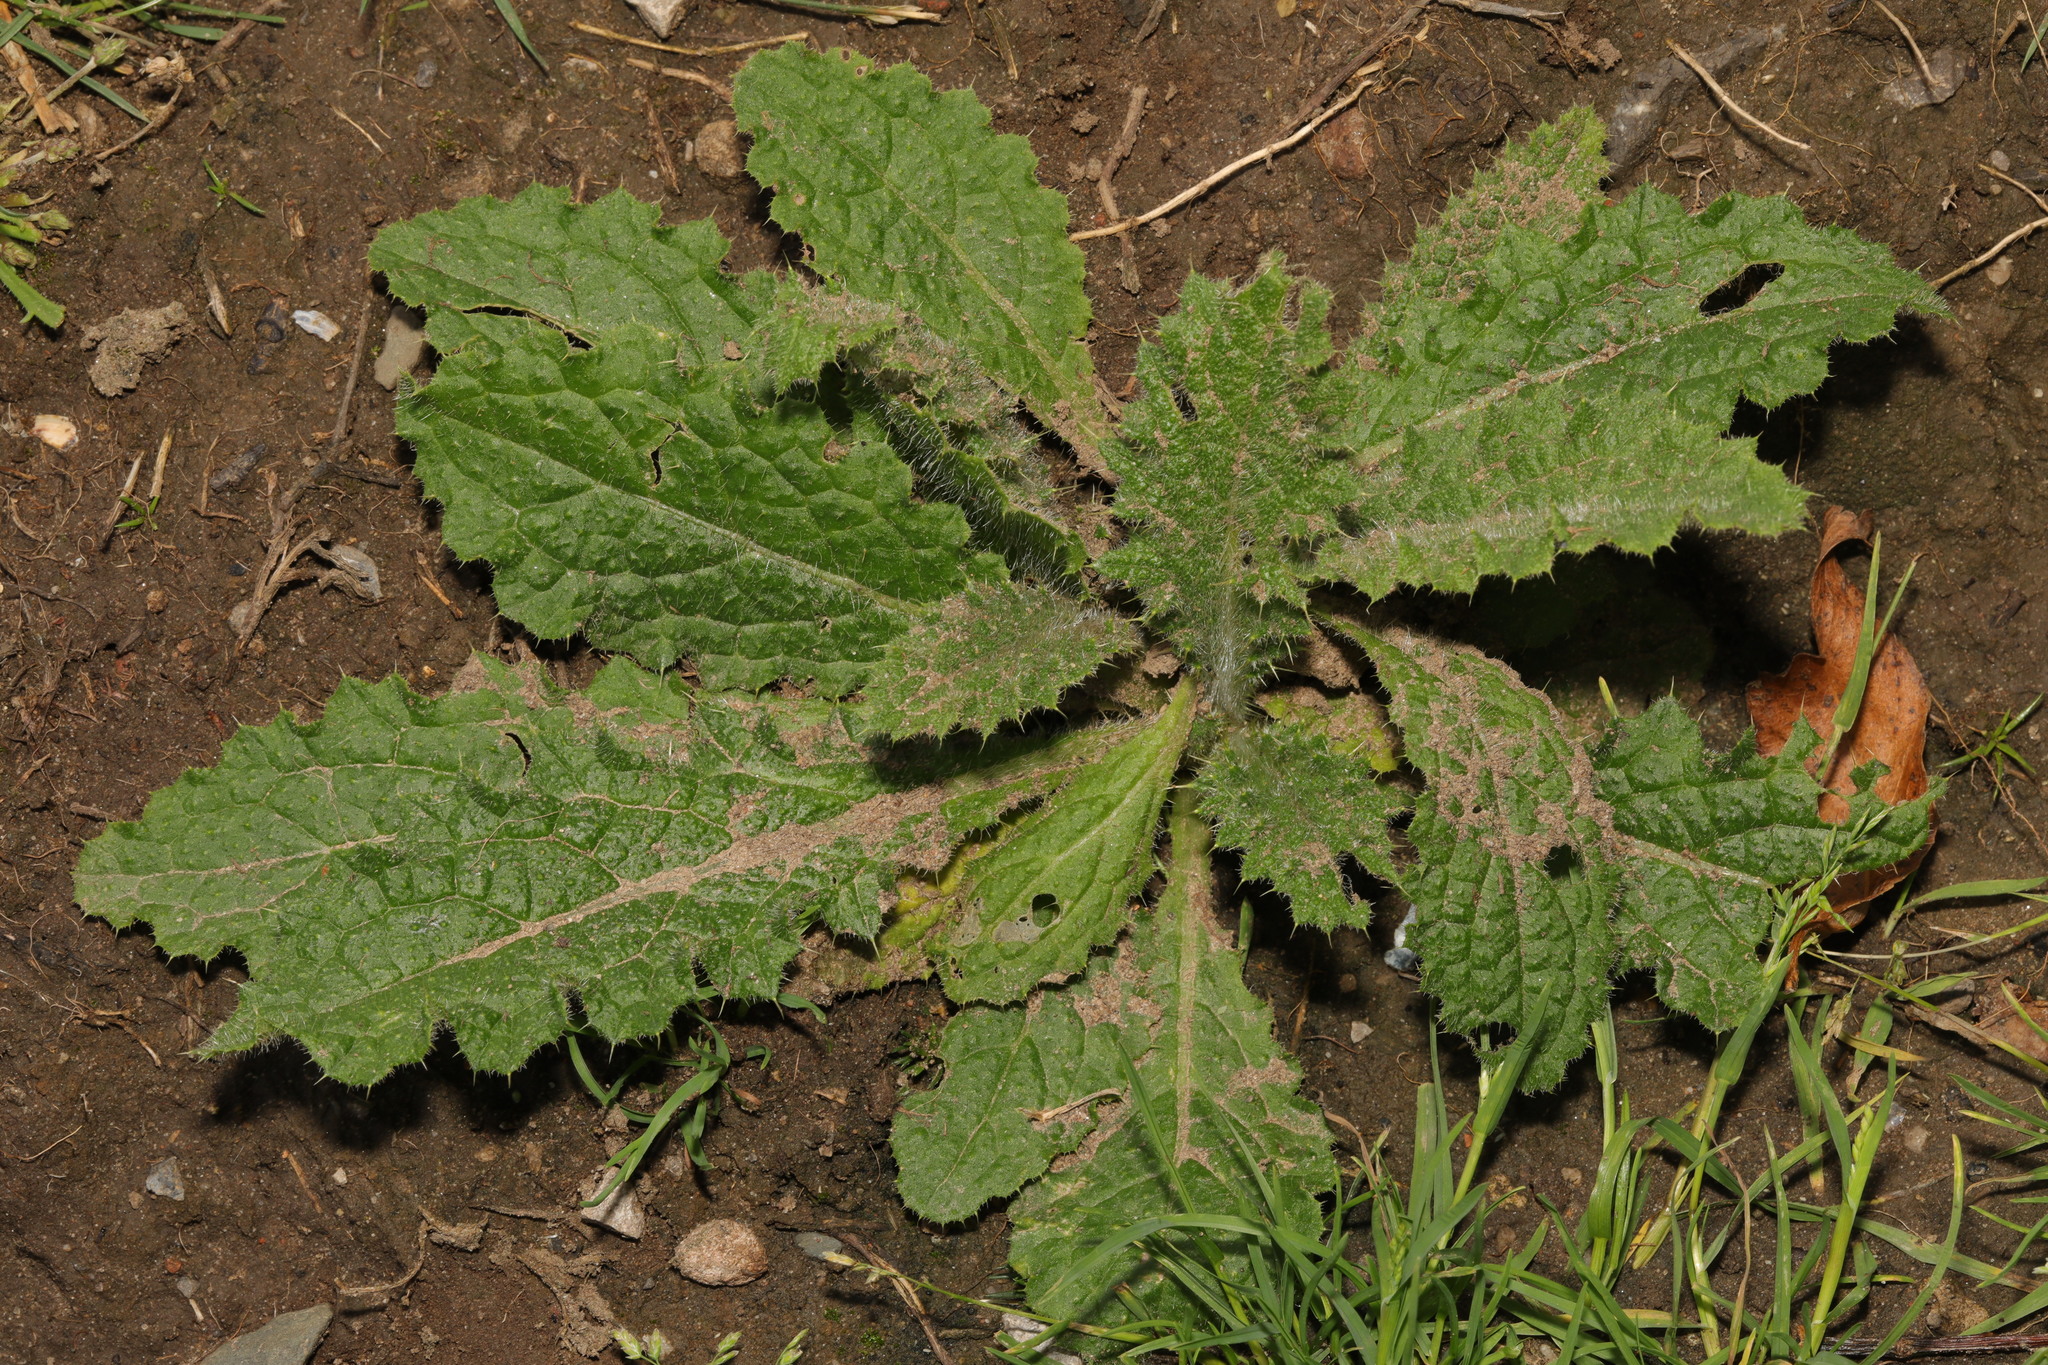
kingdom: Plantae
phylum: Tracheophyta
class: Magnoliopsida
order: Asterales
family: Asteraceae
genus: Cirsium
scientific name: Cirsium vulgare
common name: Bull thistle
